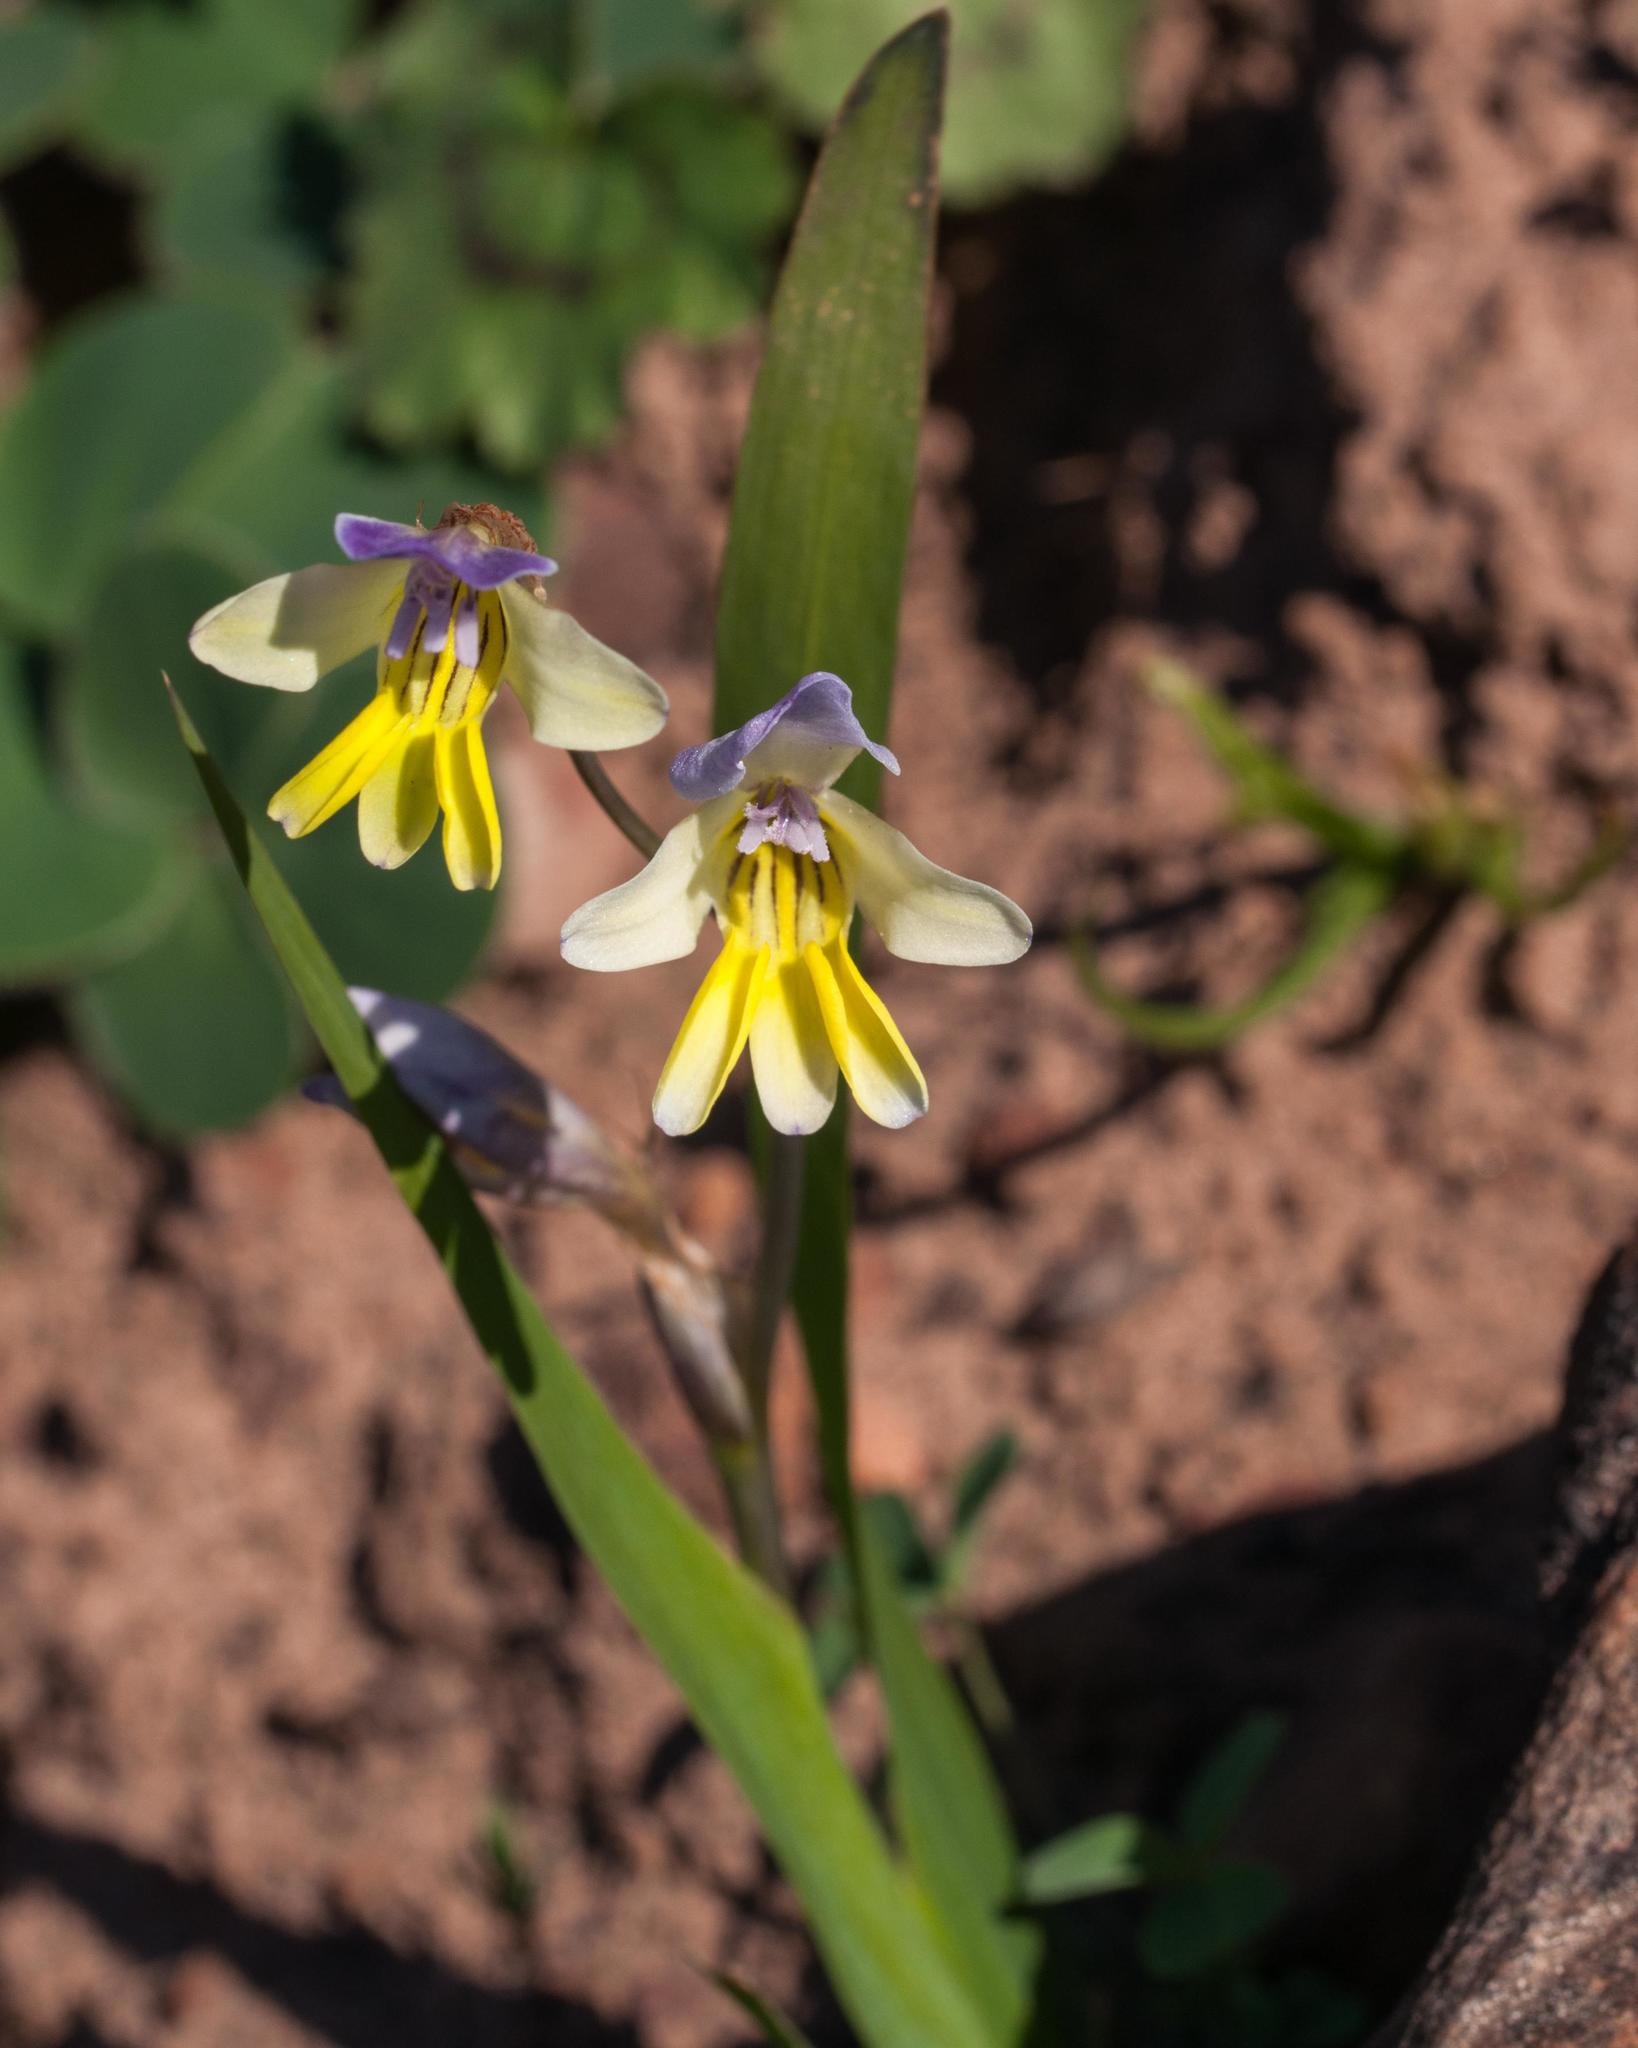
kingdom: Plantae
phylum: Tracheophyta
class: Liliopsida
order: Asparagales
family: Iridaceae
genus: Sparaxis
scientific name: Sparaxis villosa
